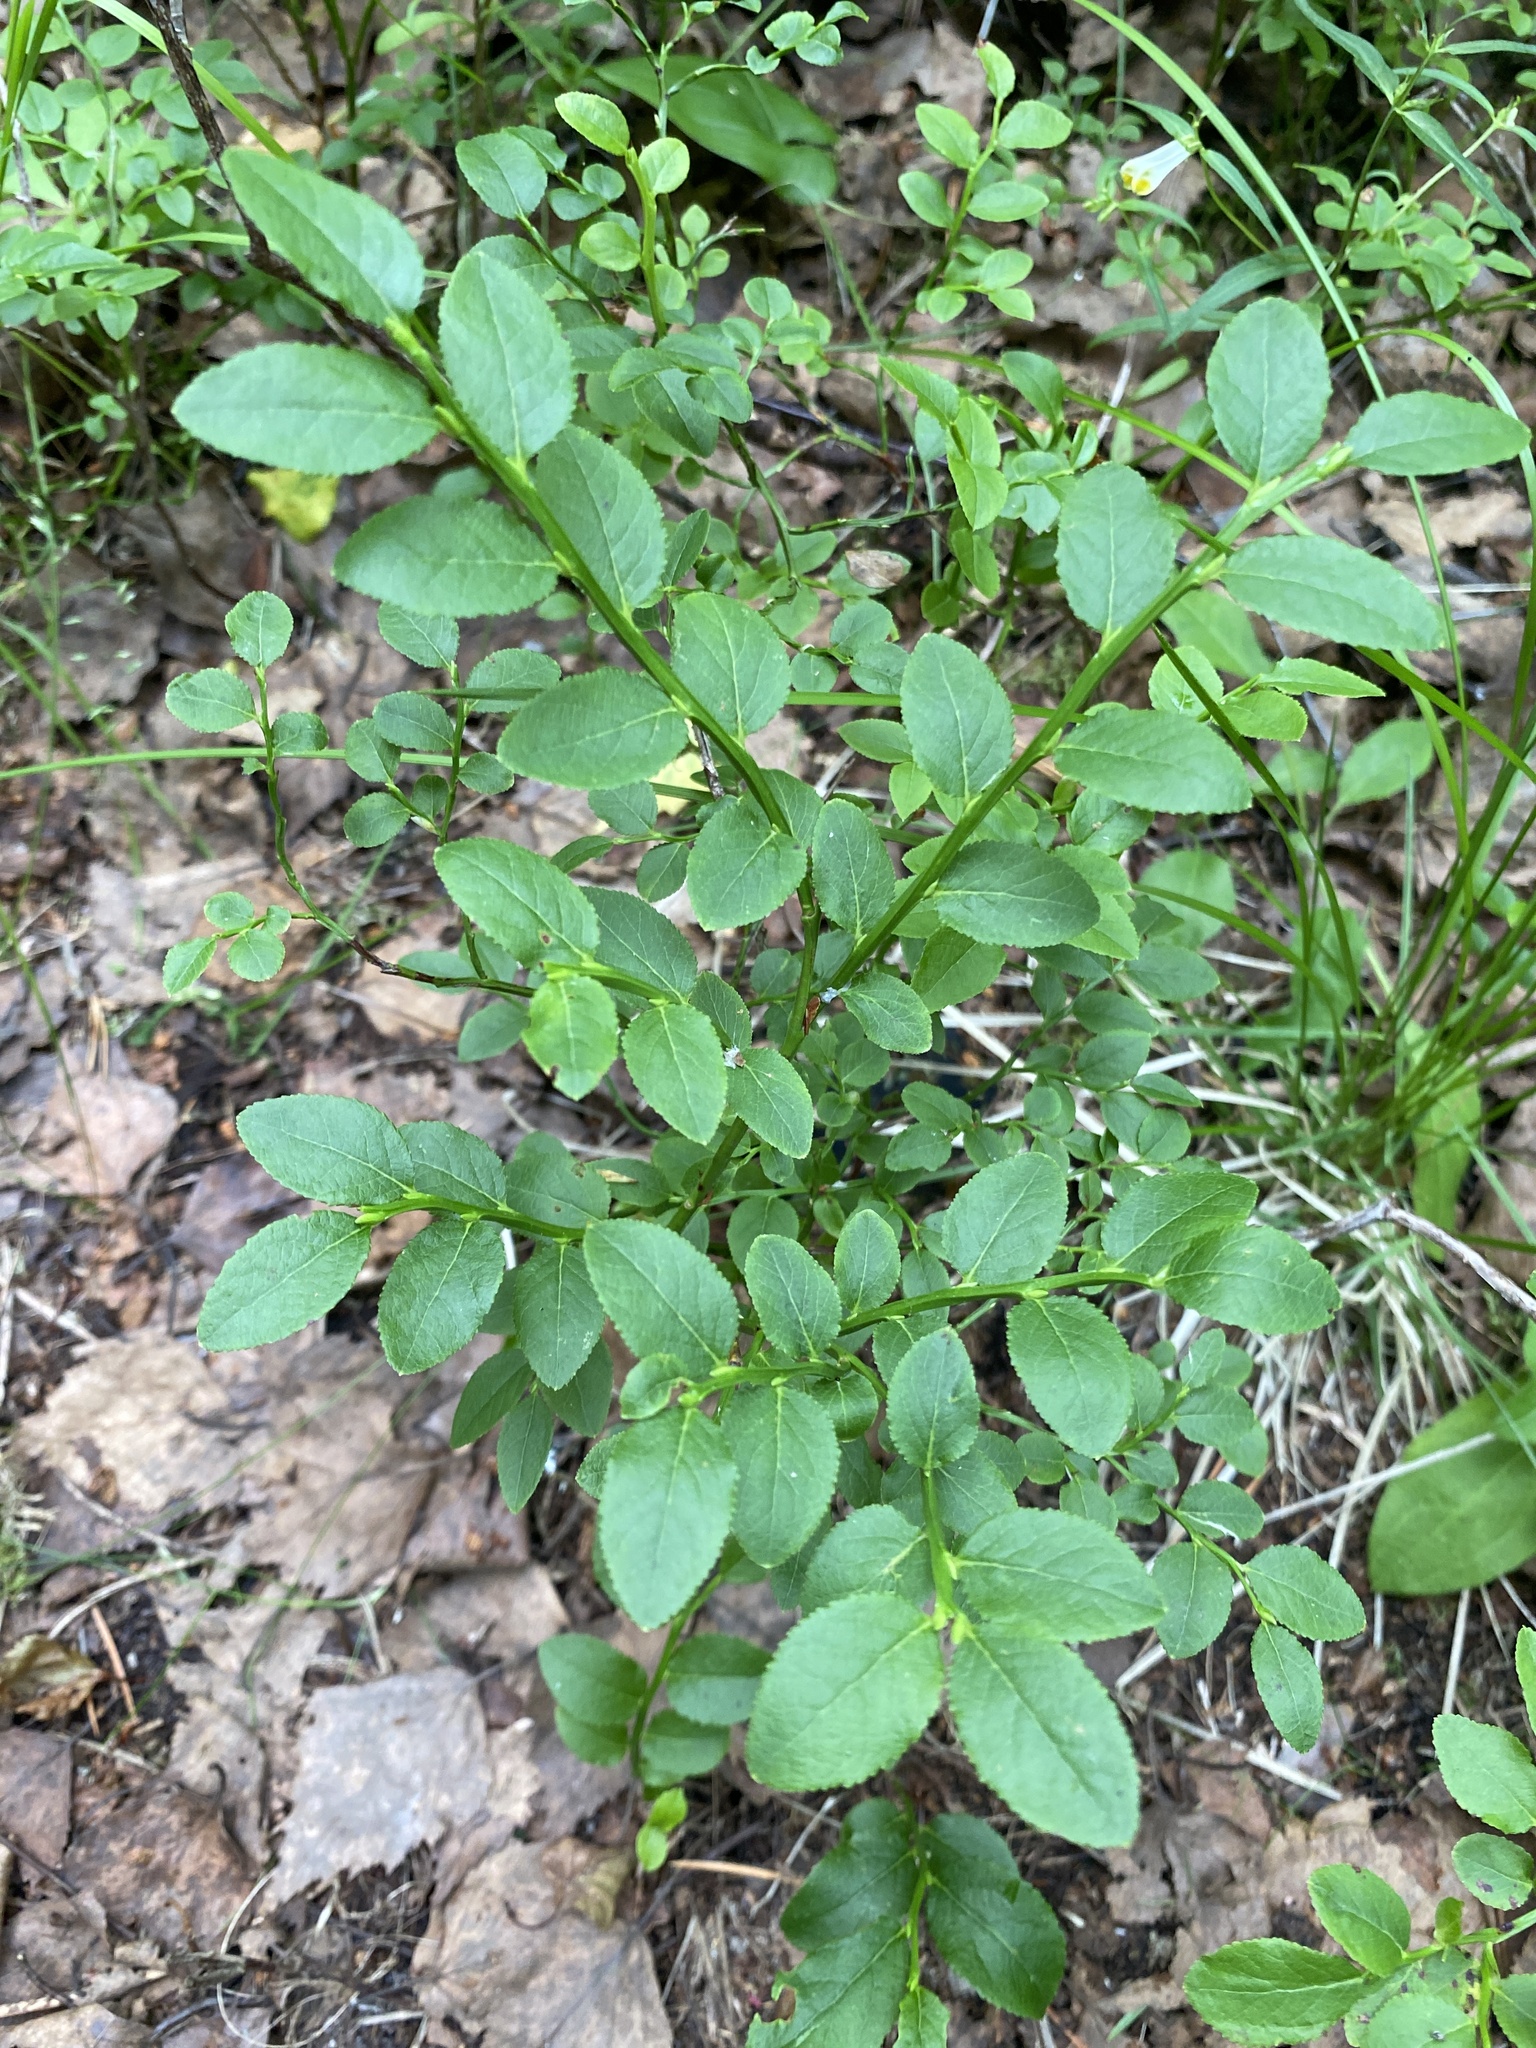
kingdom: Plantae
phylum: Tracheophyta
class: Magnoliopsida
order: Ericales
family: Ericaceae
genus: Vaccinium
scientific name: Vaccinium myrtillus
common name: Bilberry
